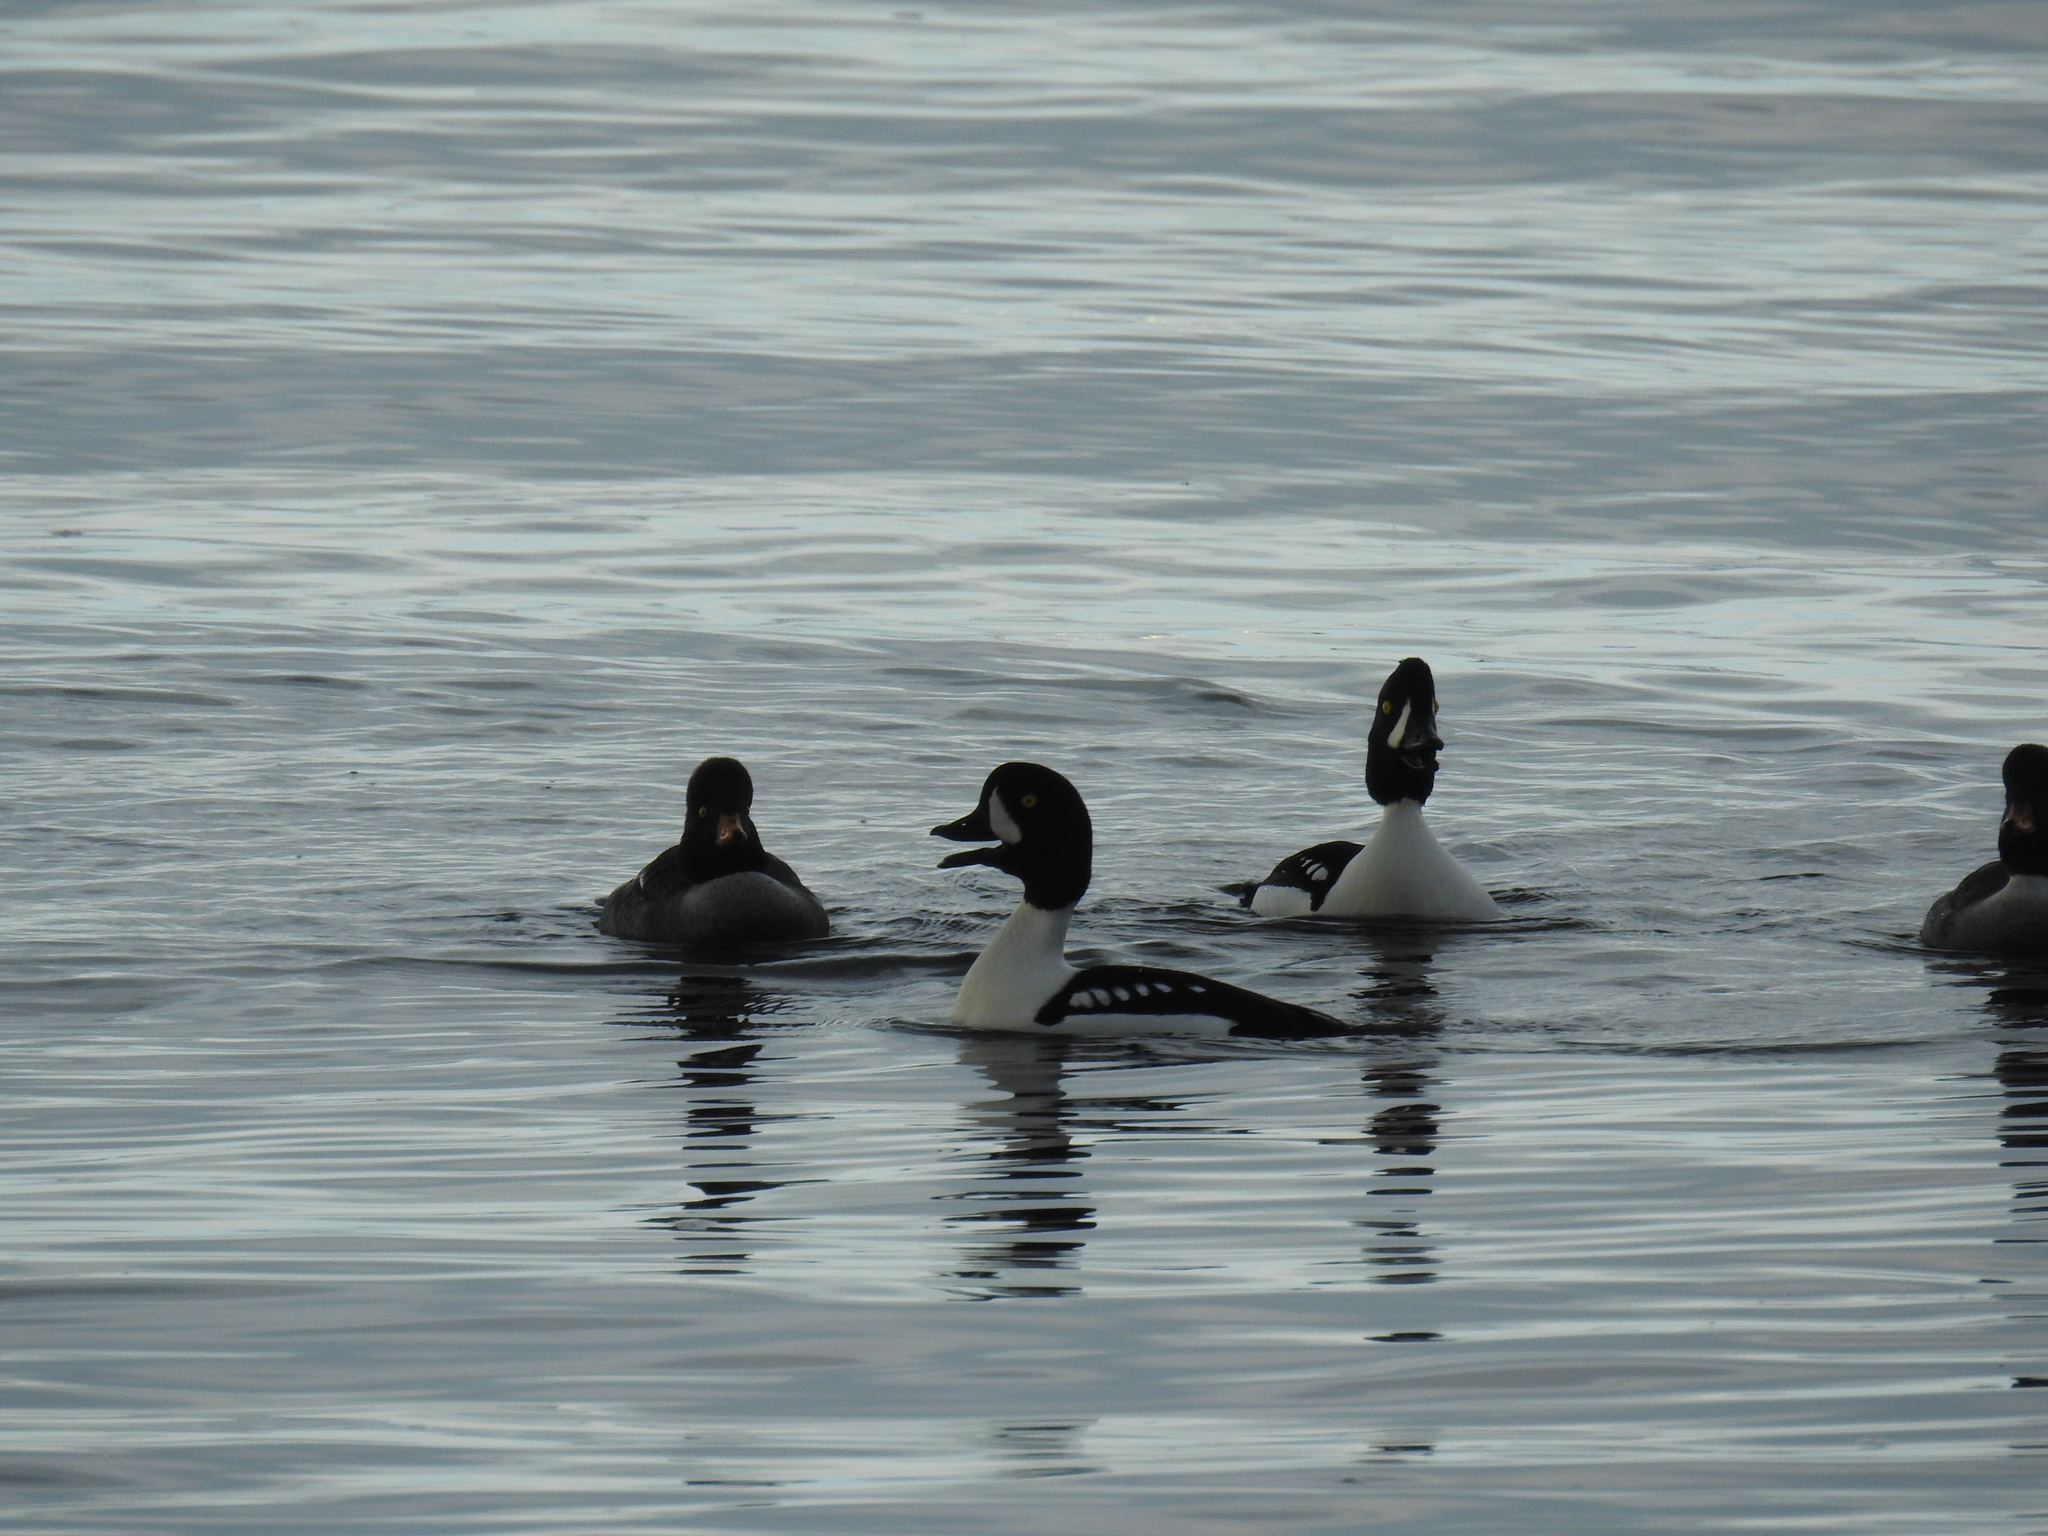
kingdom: Animalia
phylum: Chordata
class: Aves
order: Anseriformes
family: Anatidae
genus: Bucephala
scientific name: Bucephala islandica
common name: Barrow's goldeneye
